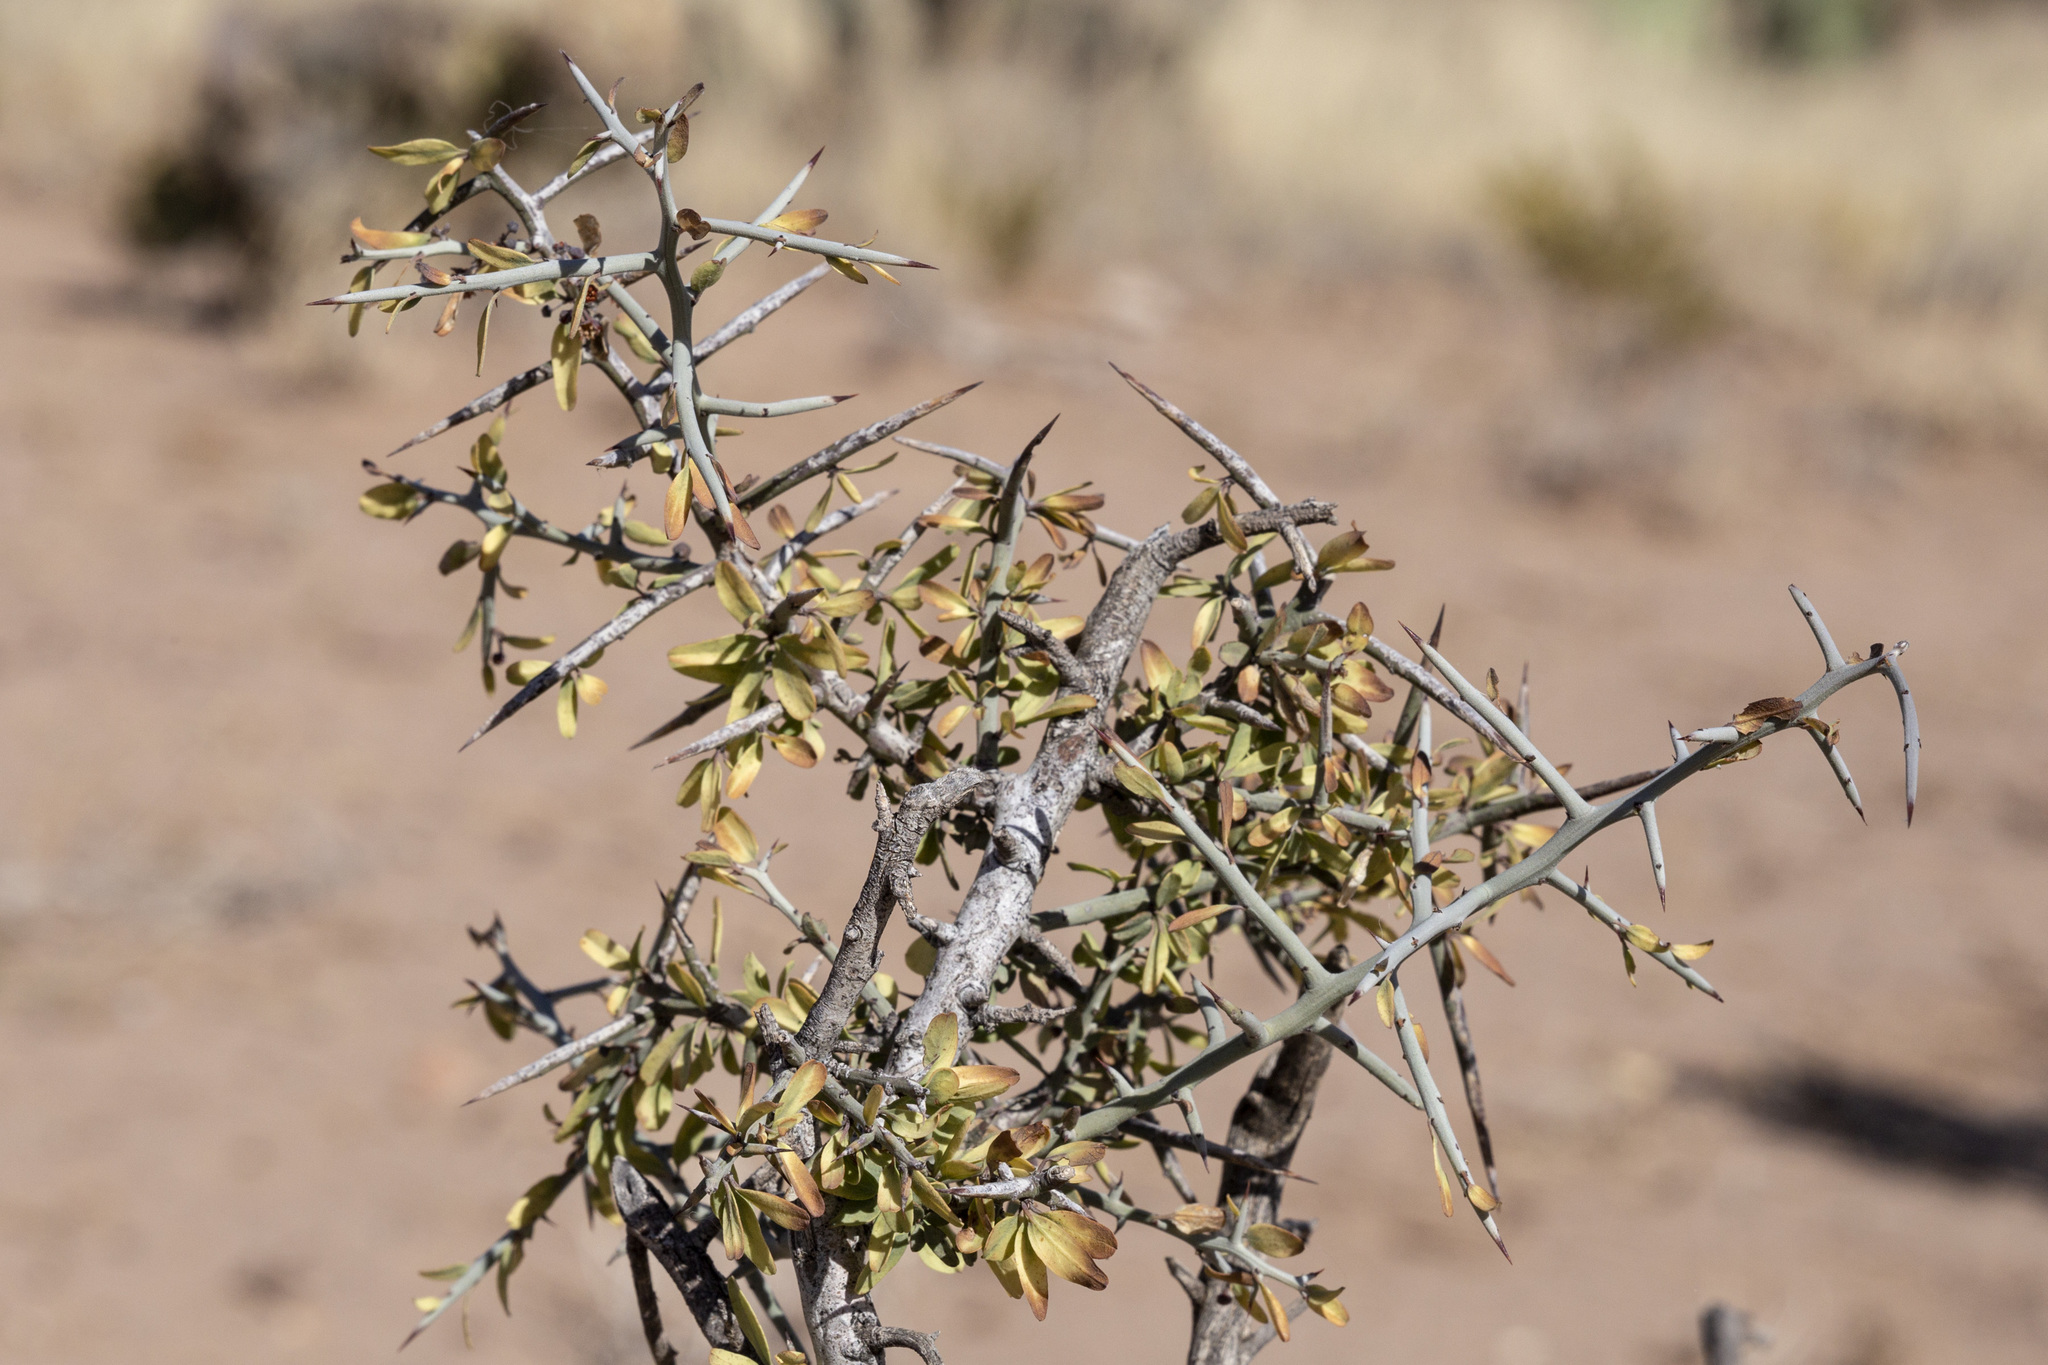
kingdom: Plantae
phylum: Tracheophyta
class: Magnoliopsida
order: Rosales
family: Rhamnaceae
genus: Sarcomphalus
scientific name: Sarcomphalus obtusifolius
